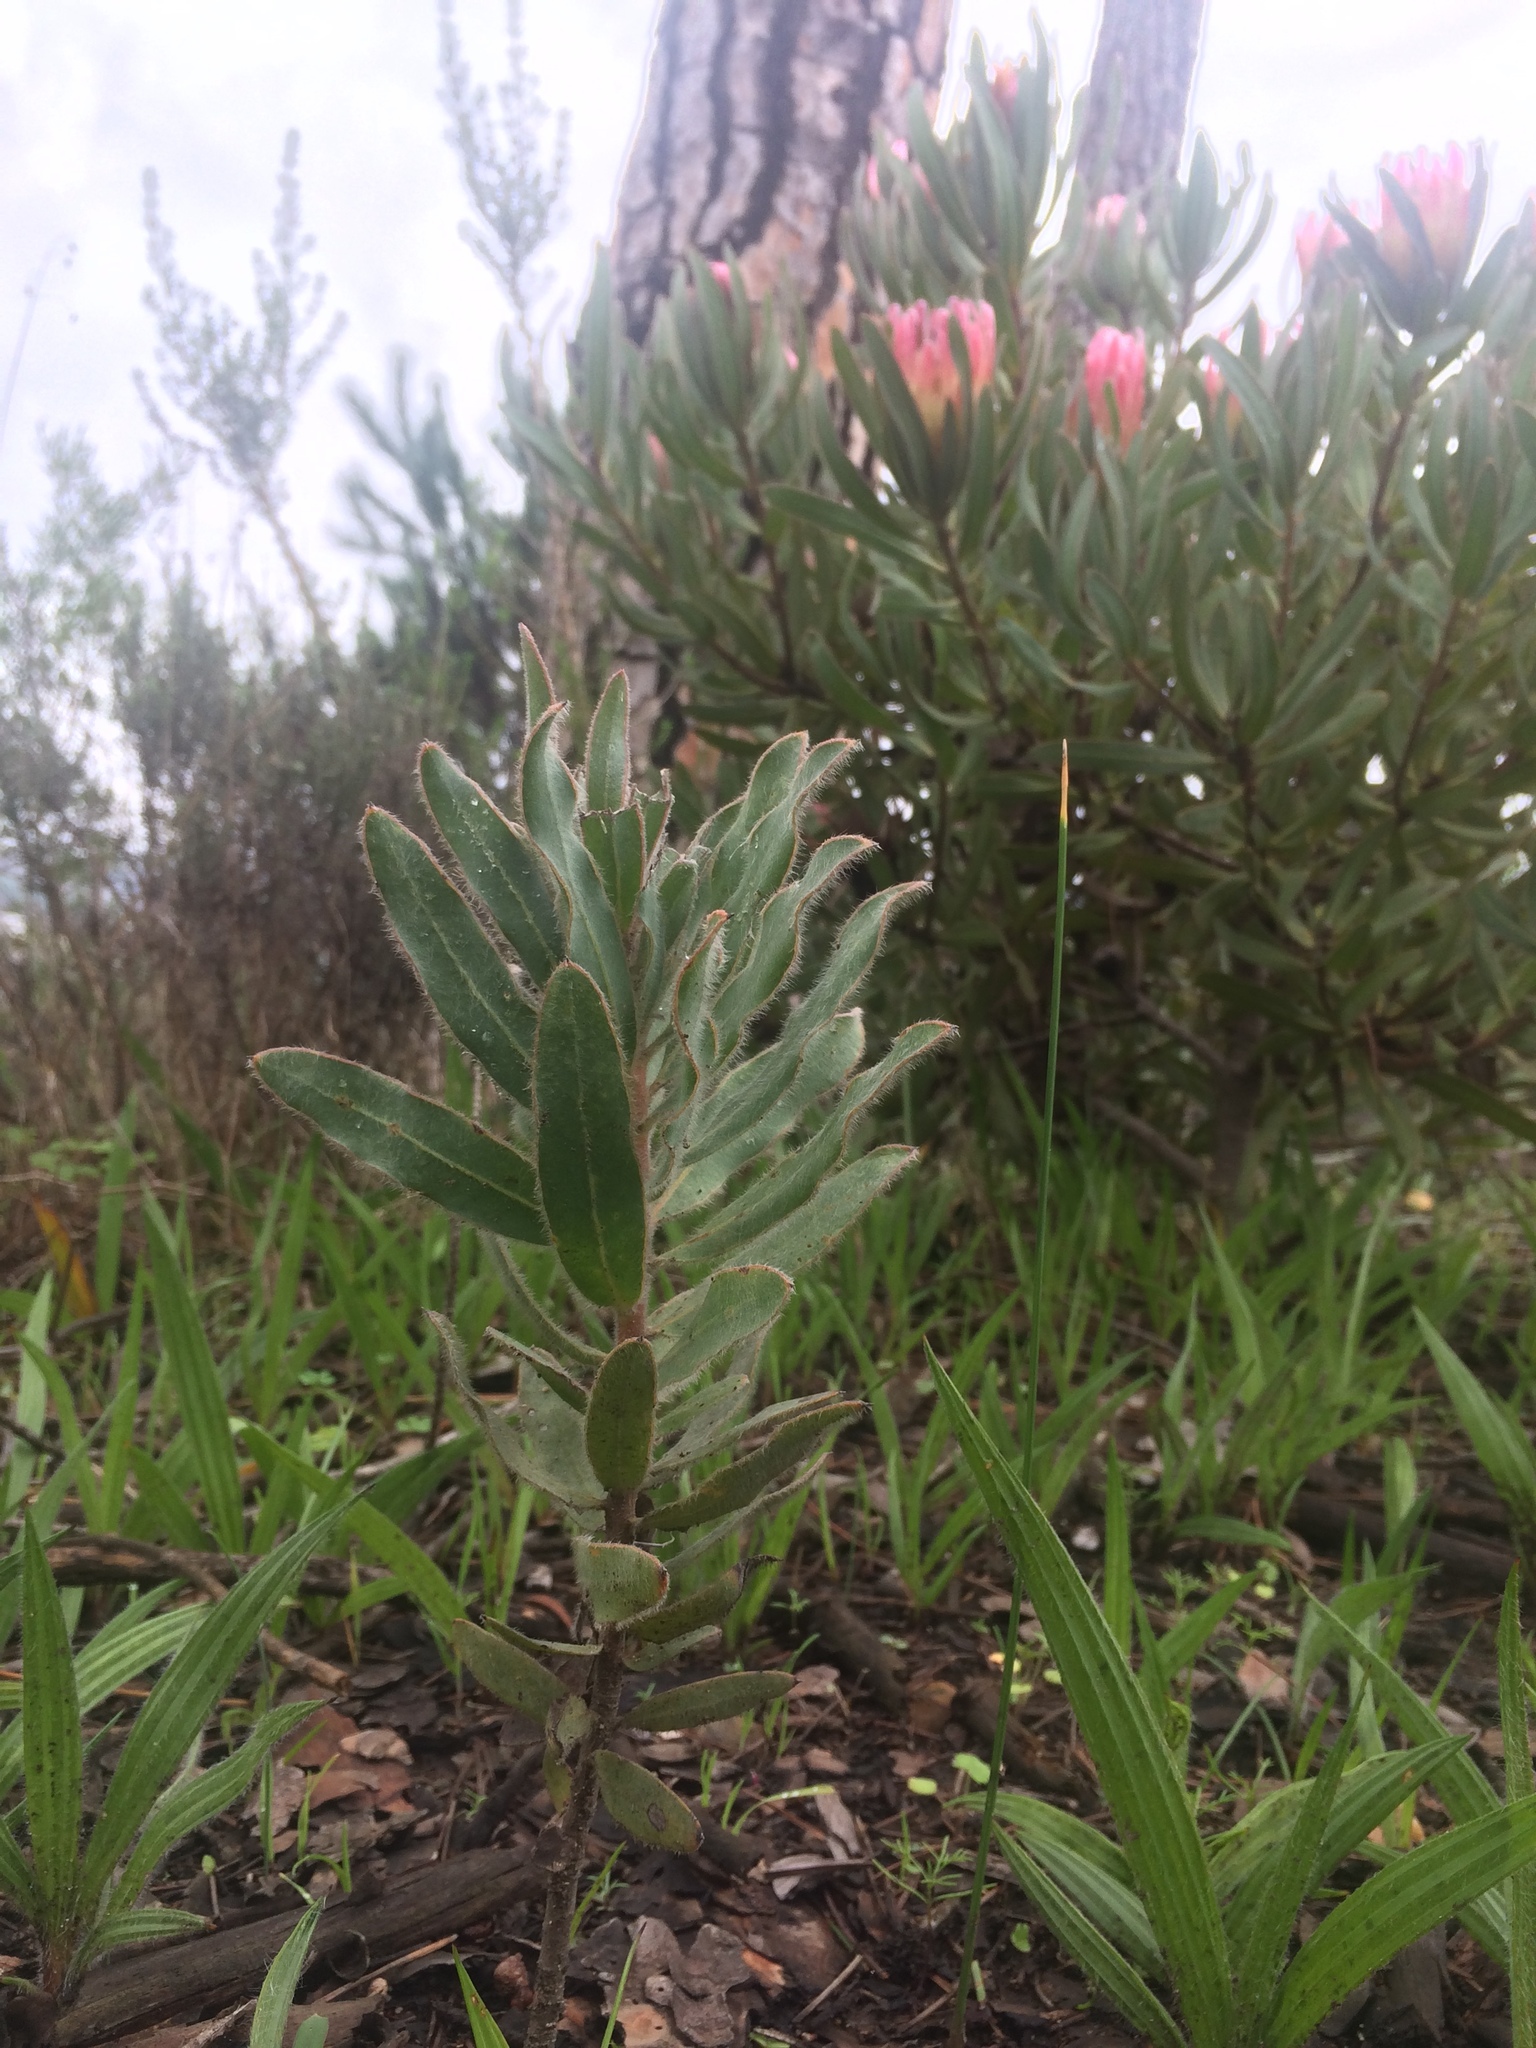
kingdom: Plantae
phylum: Tracheophyta
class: Magnoliopsida
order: Proteales
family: Proteaceae
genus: Protea
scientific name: Protea burchellii
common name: Burchell's sugarbush
